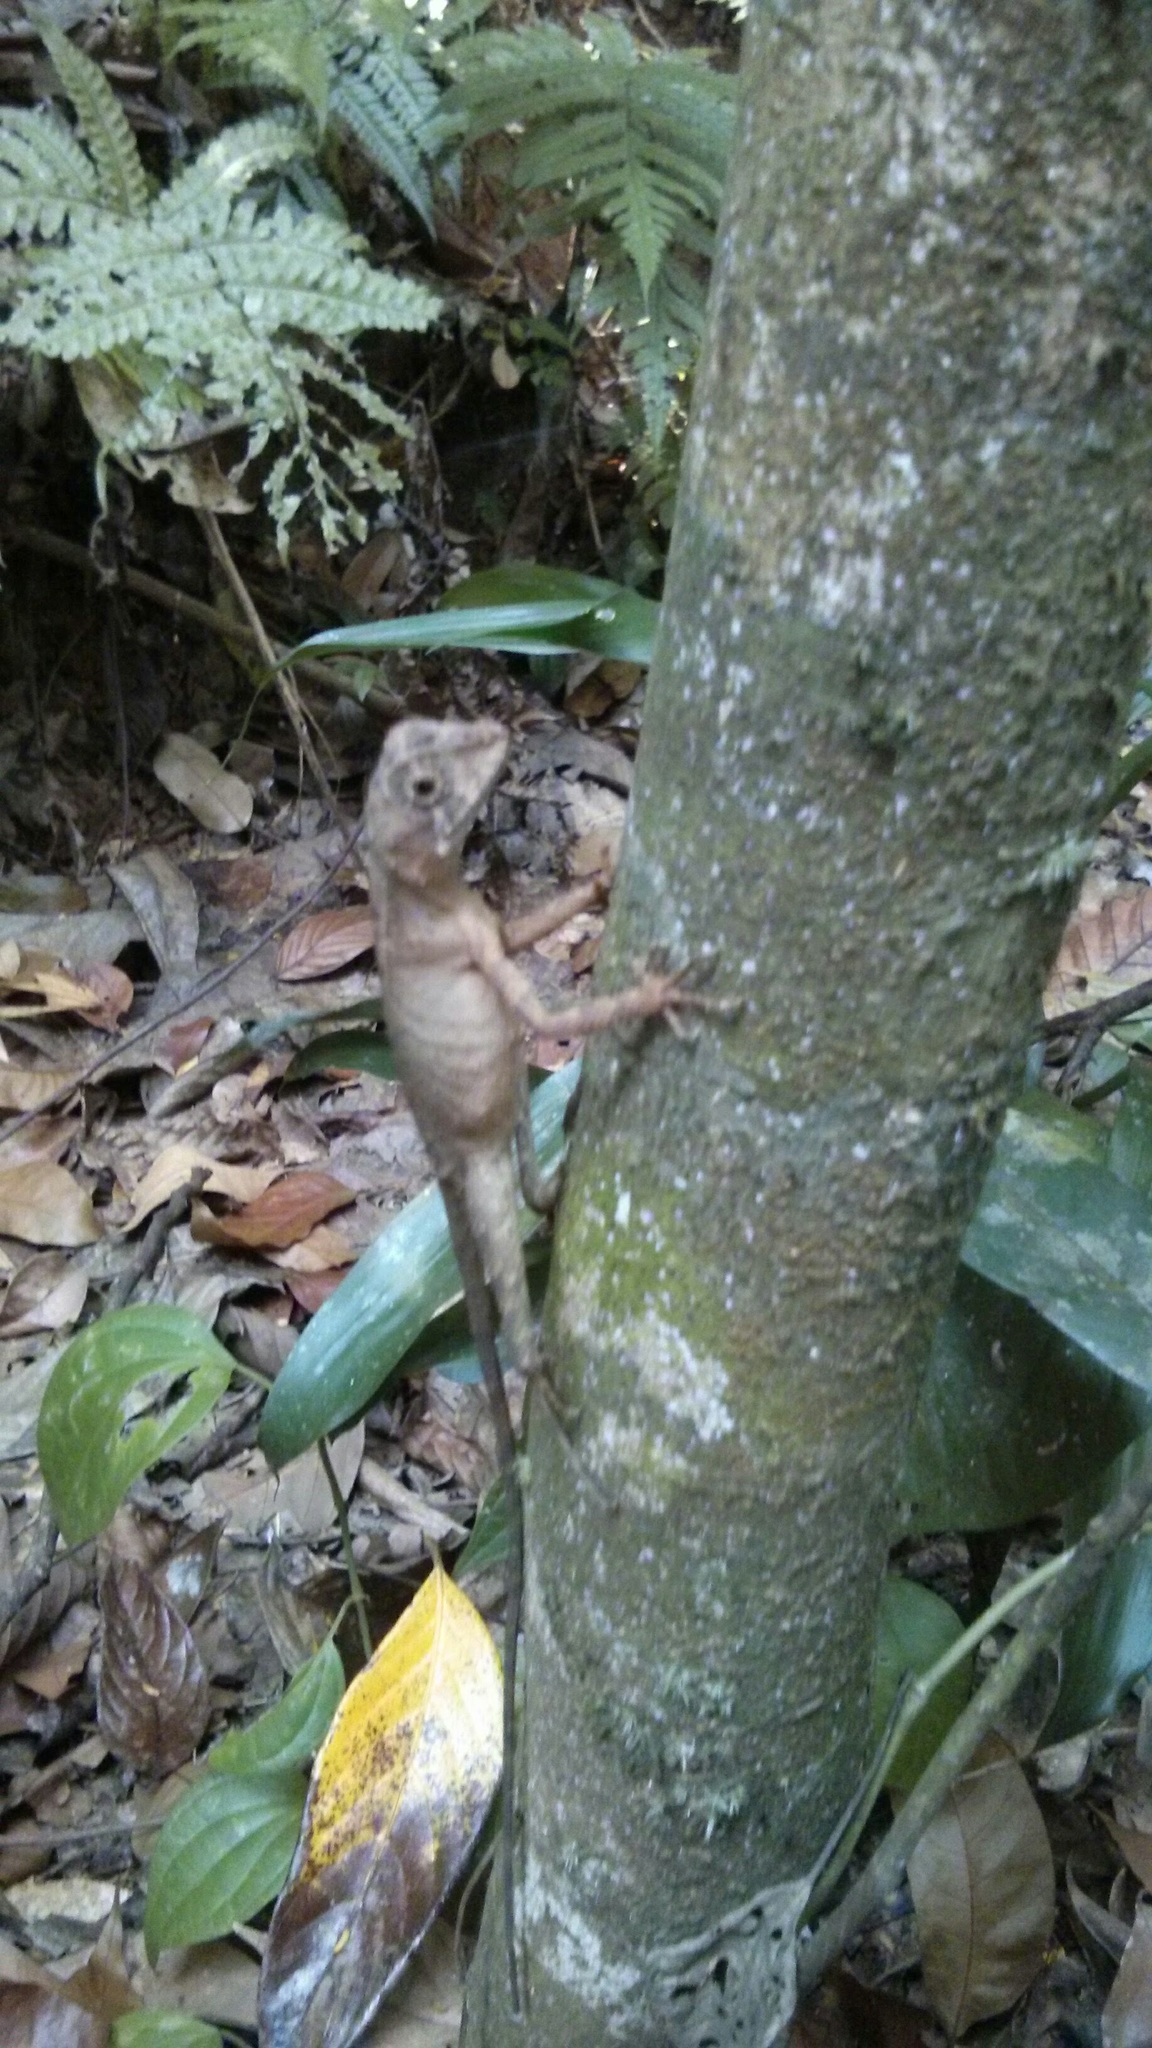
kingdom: Animalia
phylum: Chordata
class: Squamata
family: Agamidae
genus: Otocryptis
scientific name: Otocryptis wiegmanni
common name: Wiegmann's agama
